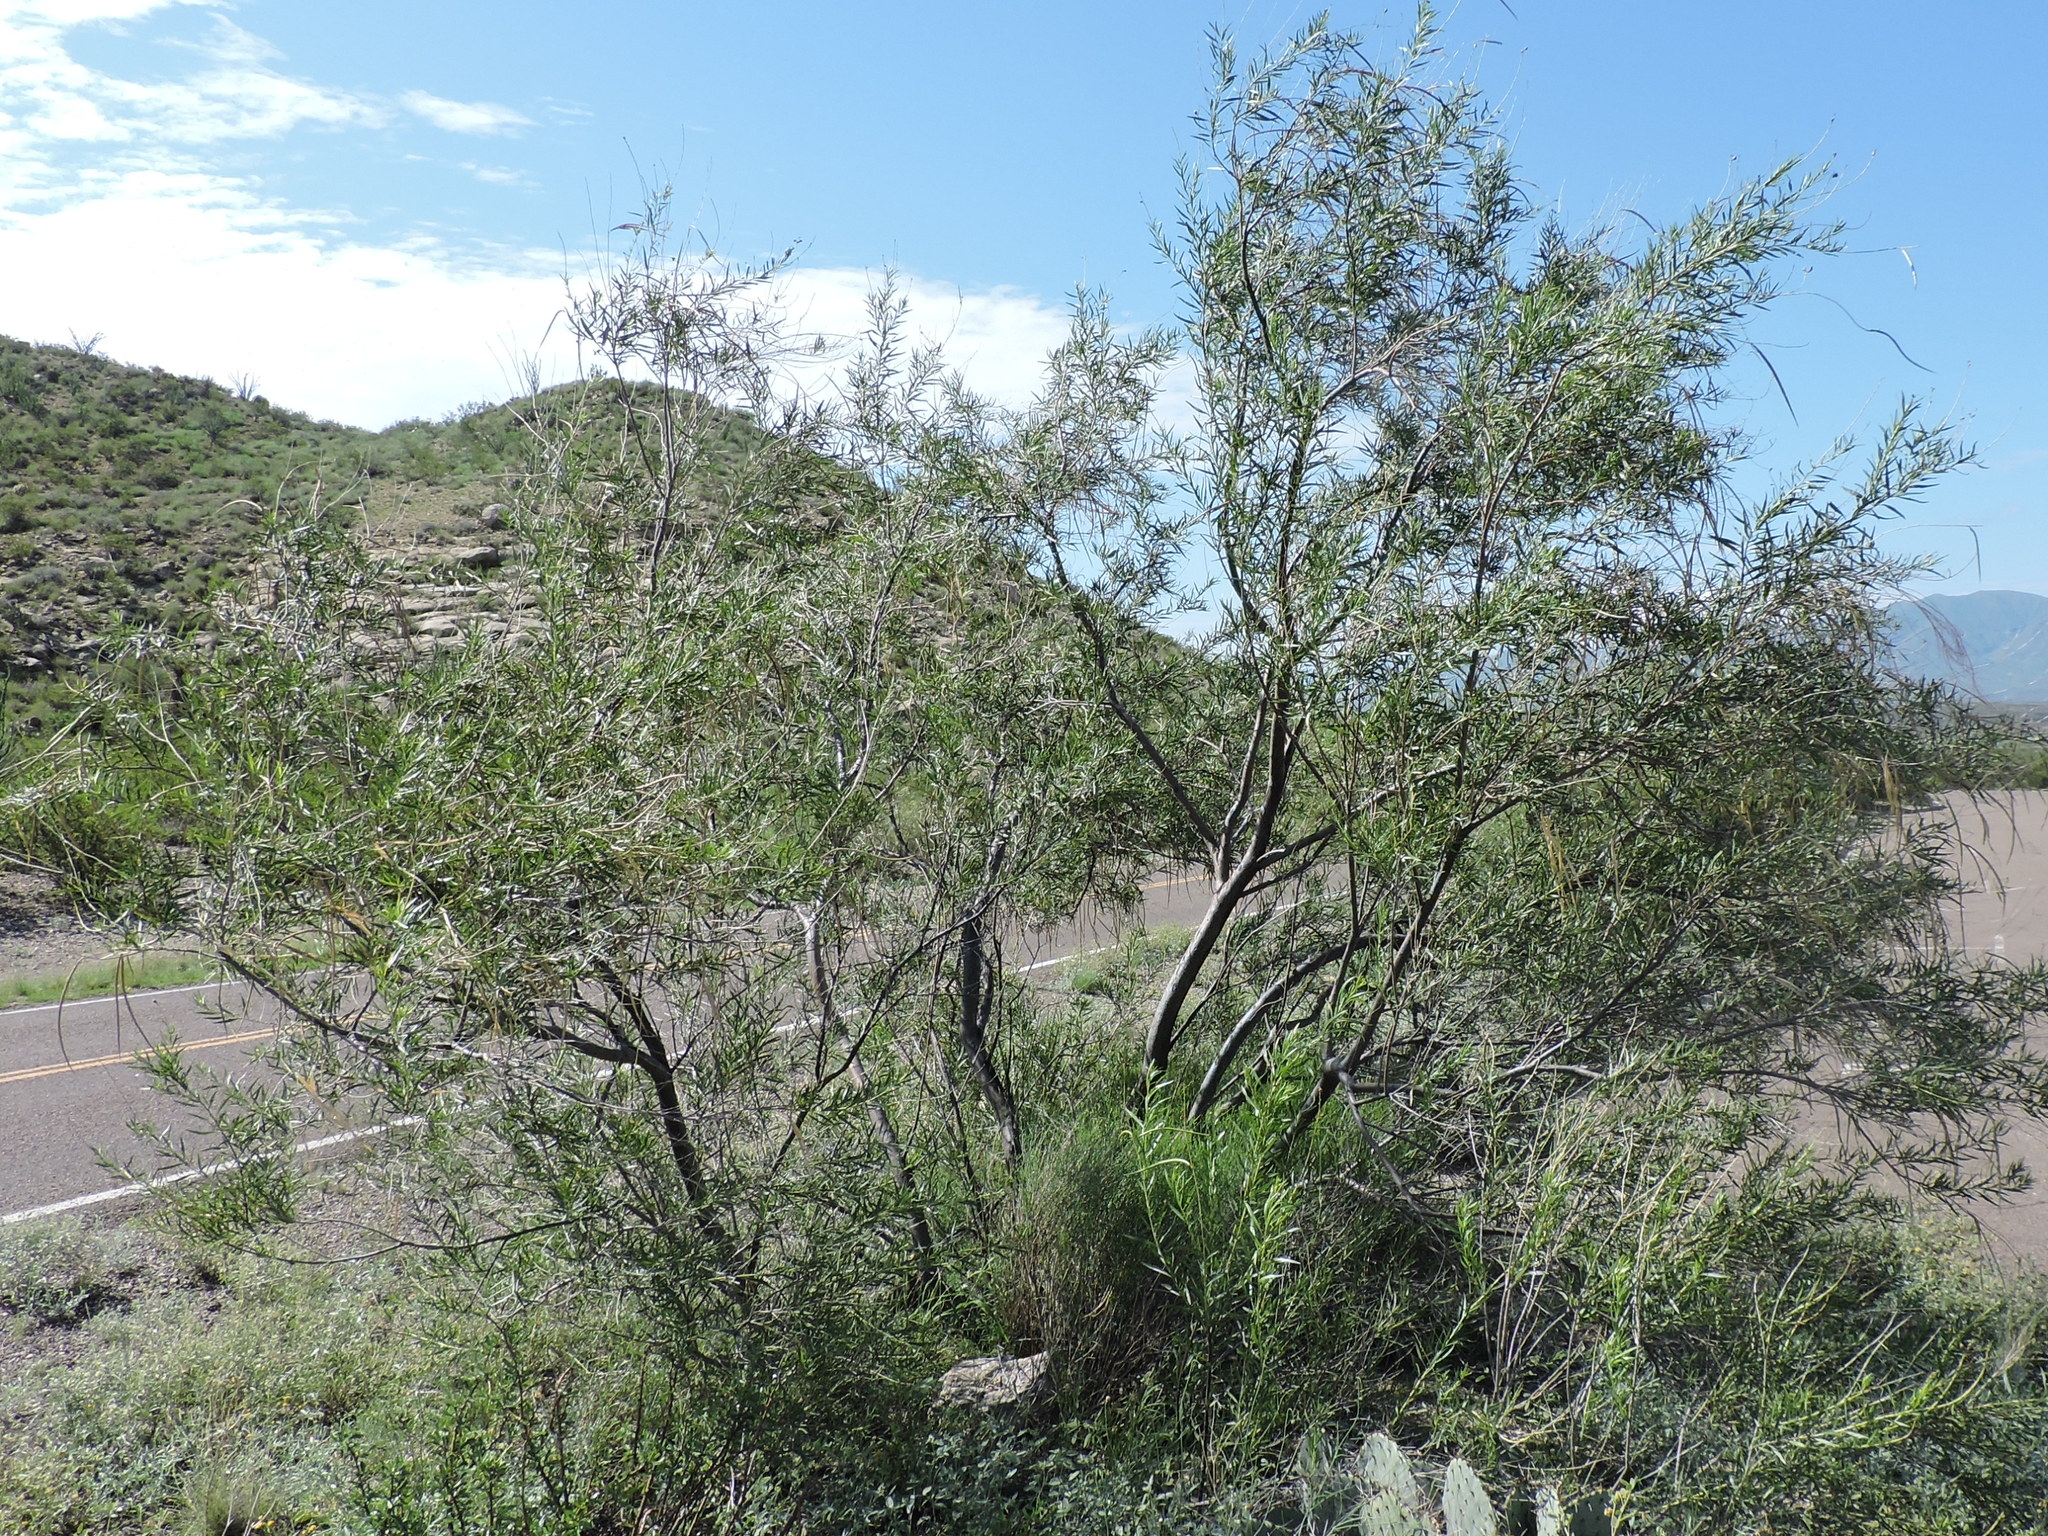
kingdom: Plantae
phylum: Tracheophyta
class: Magnoliopsida
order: Lamiales
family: Bignoniaceae
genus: Chilopsis
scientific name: Chilopsis linearis
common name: Desert-willow
